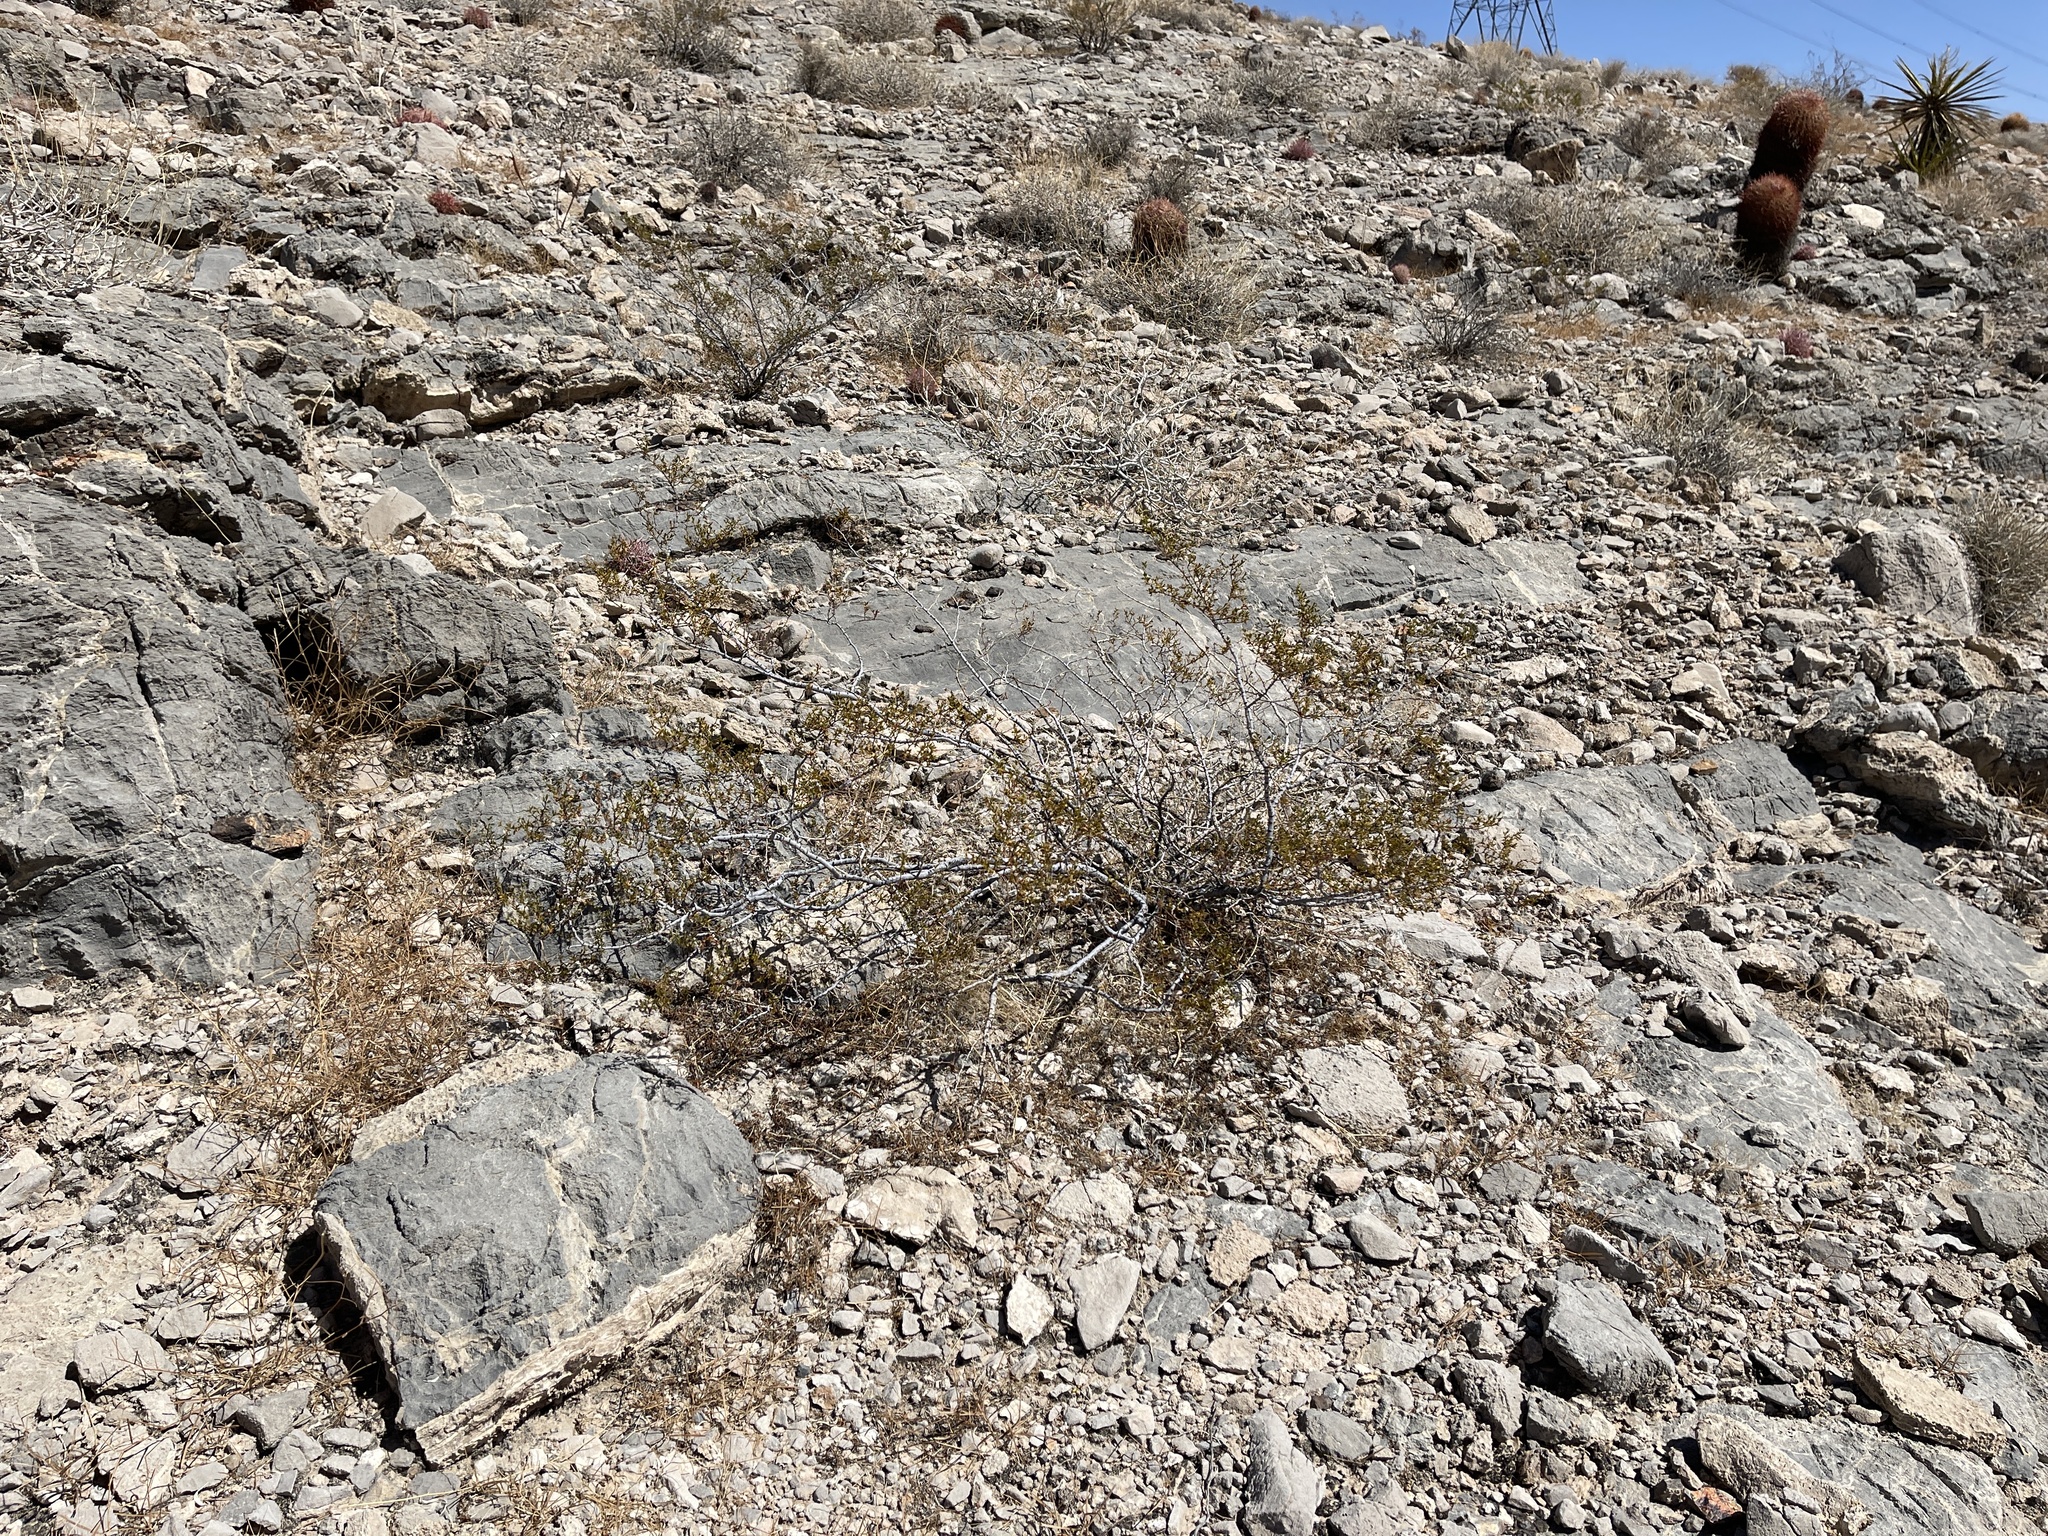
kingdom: Plantae
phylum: Tracheophyta
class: Magnoliopsida
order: Zygophyllales
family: Zygophyllaceae
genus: Larrea
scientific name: Larrea tridentata
